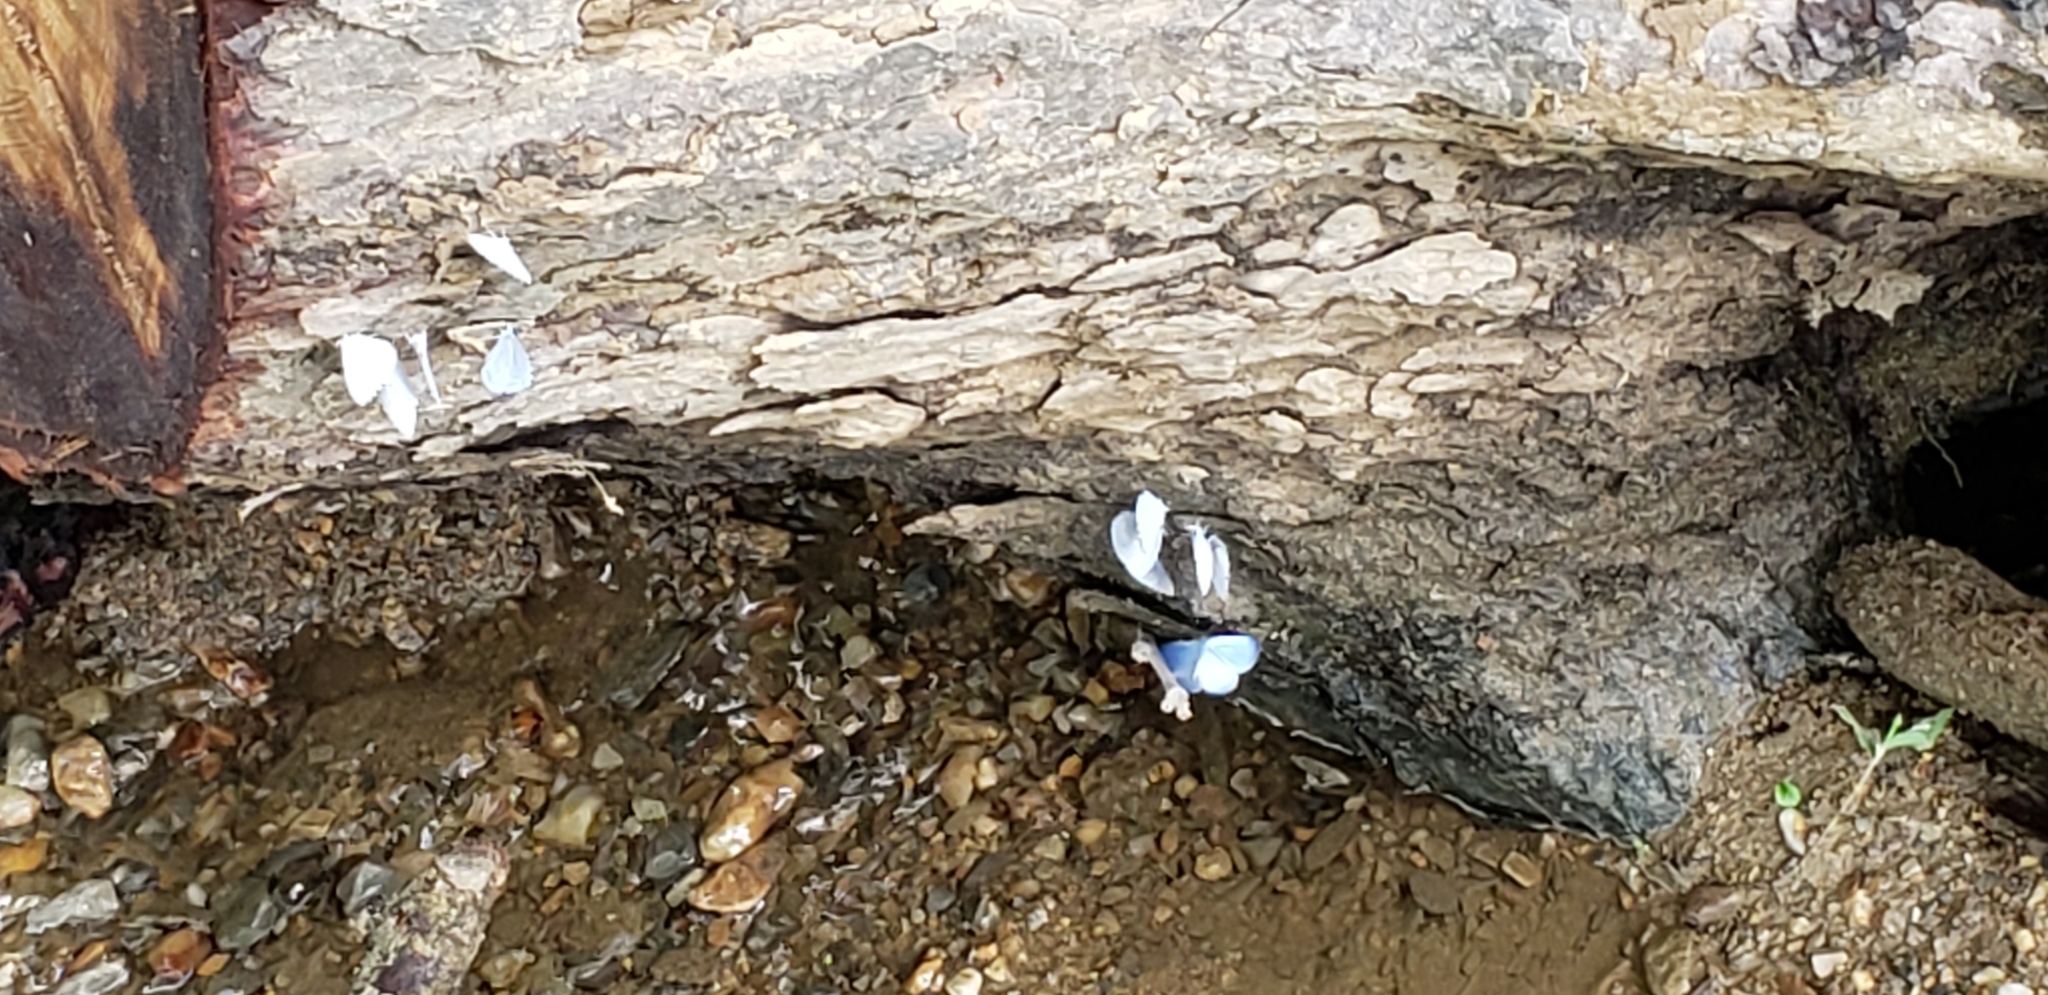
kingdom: Animalia
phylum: Arthropoda
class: Insecta
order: Lepidoptera
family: Lycaenidae
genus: Cyaniris
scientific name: Cyaniris neglecta
